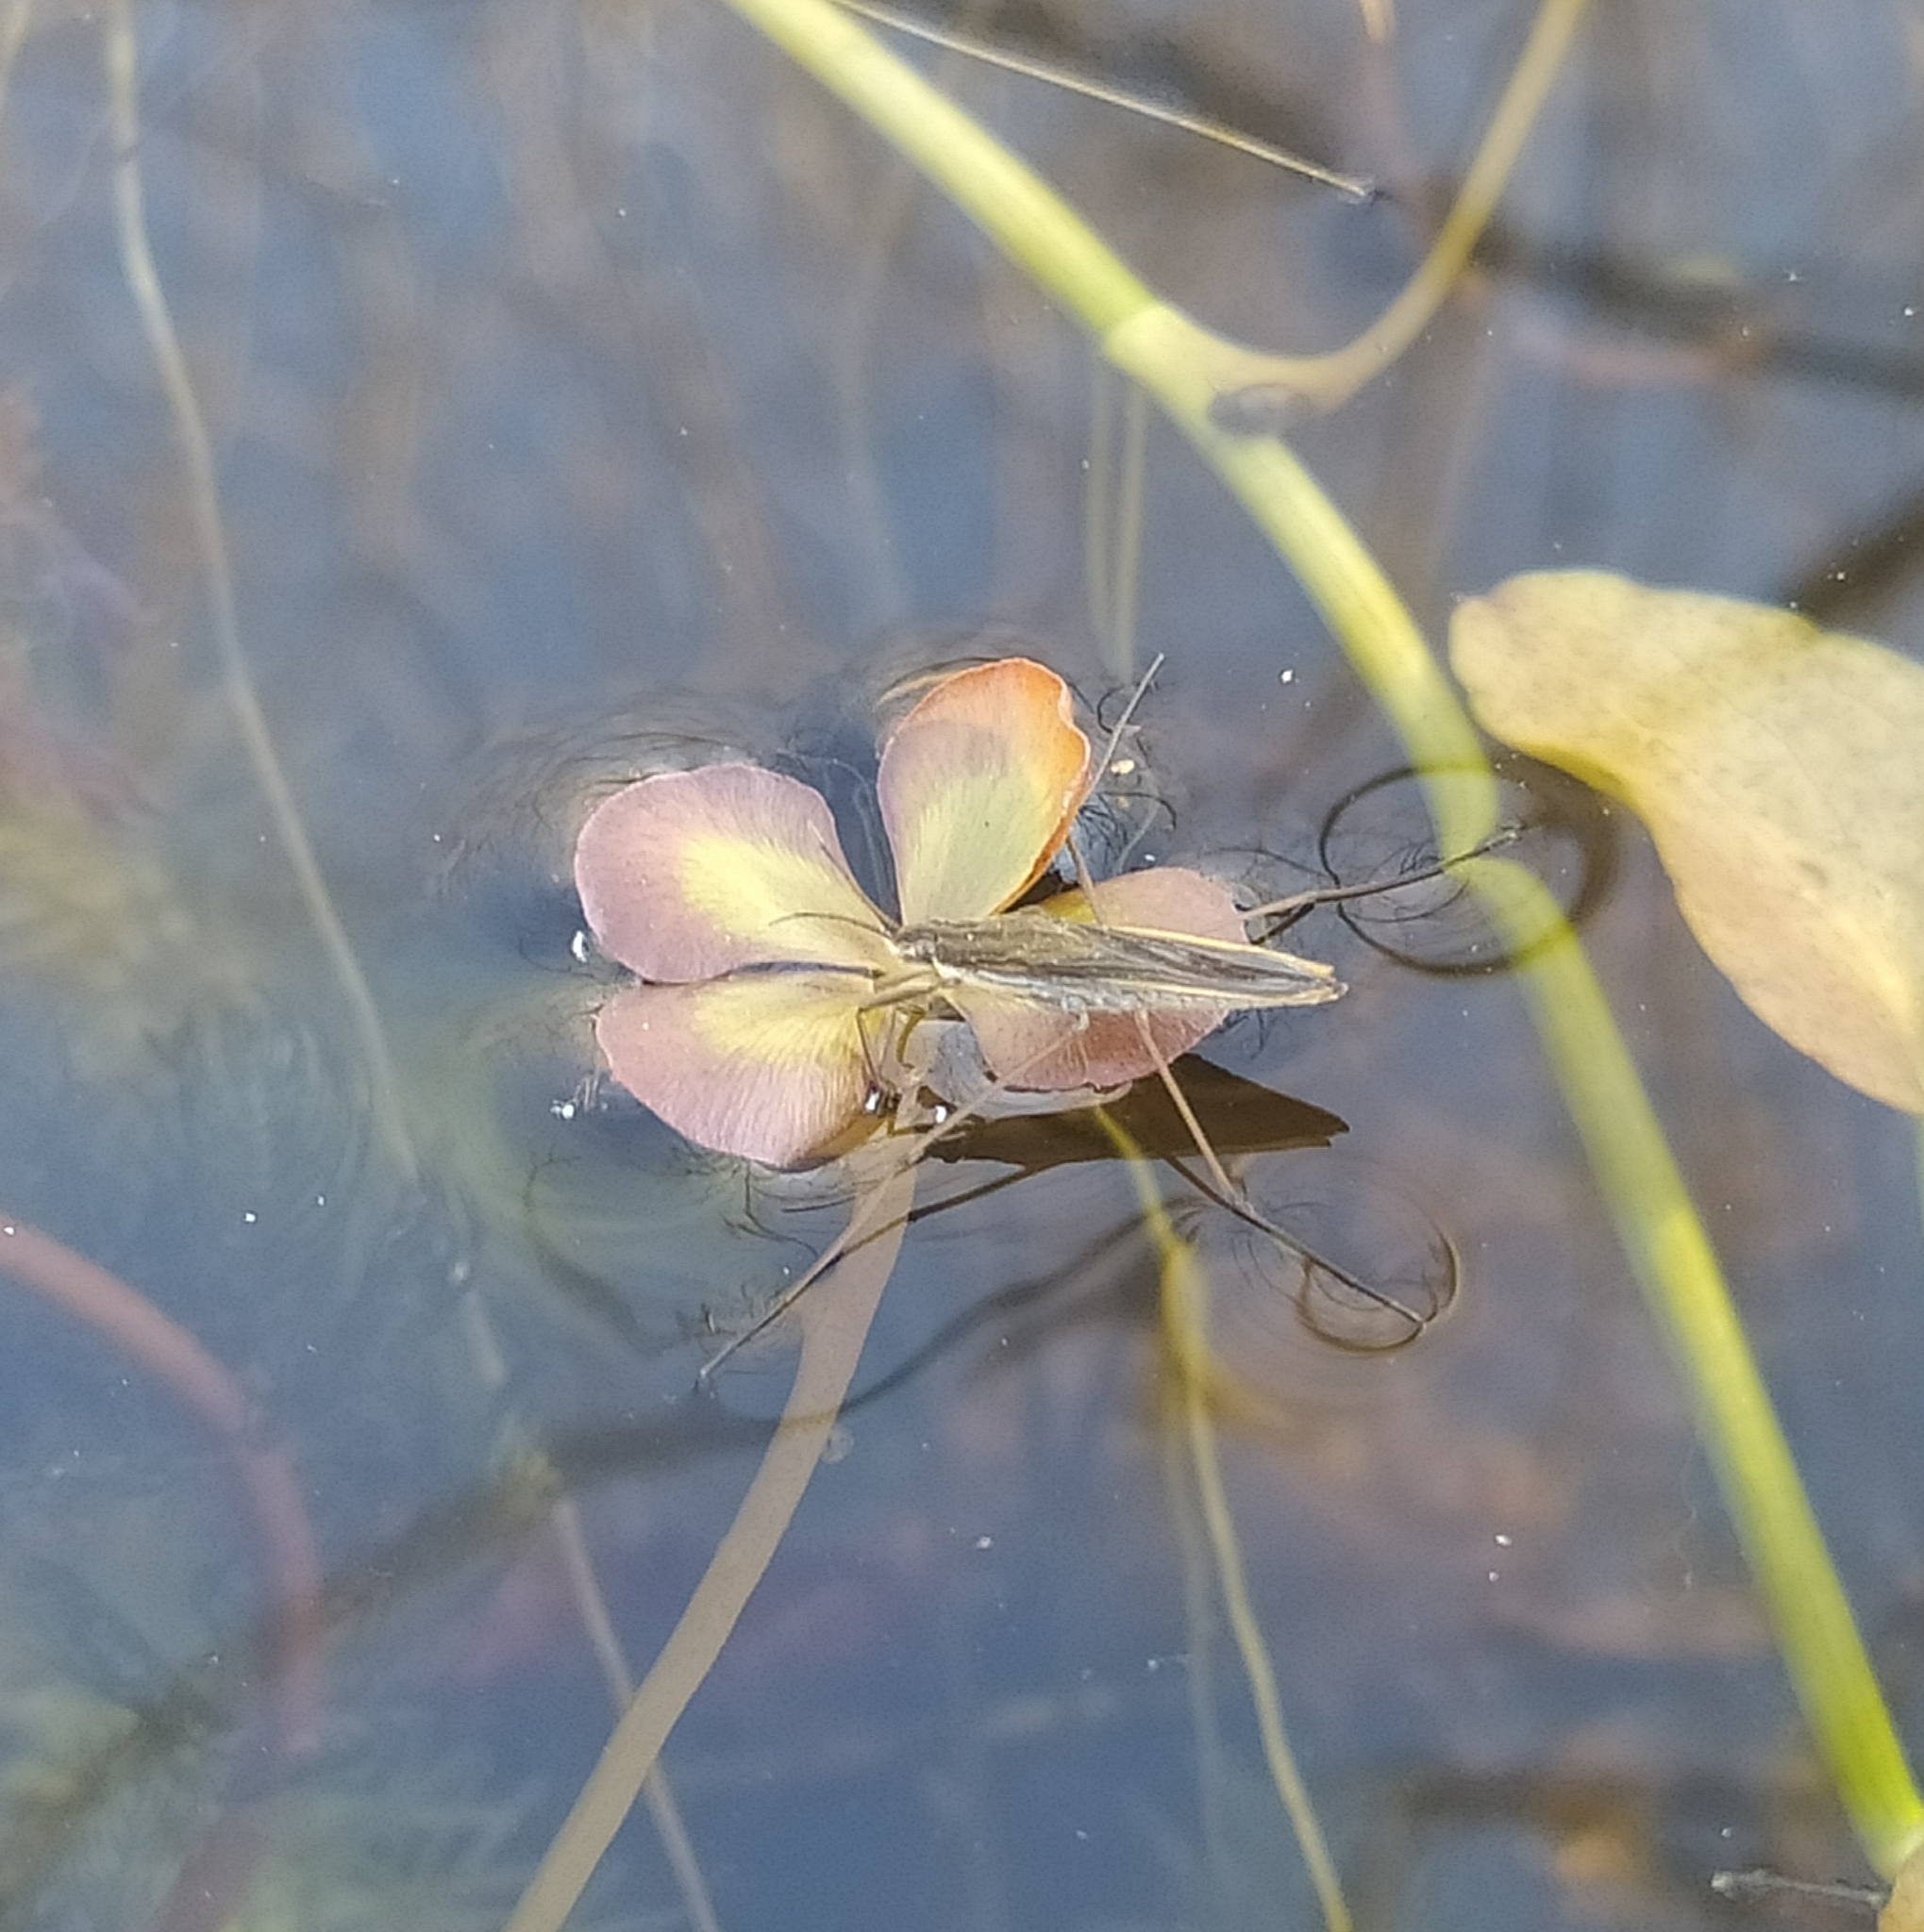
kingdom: Animalia
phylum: Arthropoda
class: Insecta
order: Hemiptera
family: Gerridae
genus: Gerris
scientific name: Gerris
